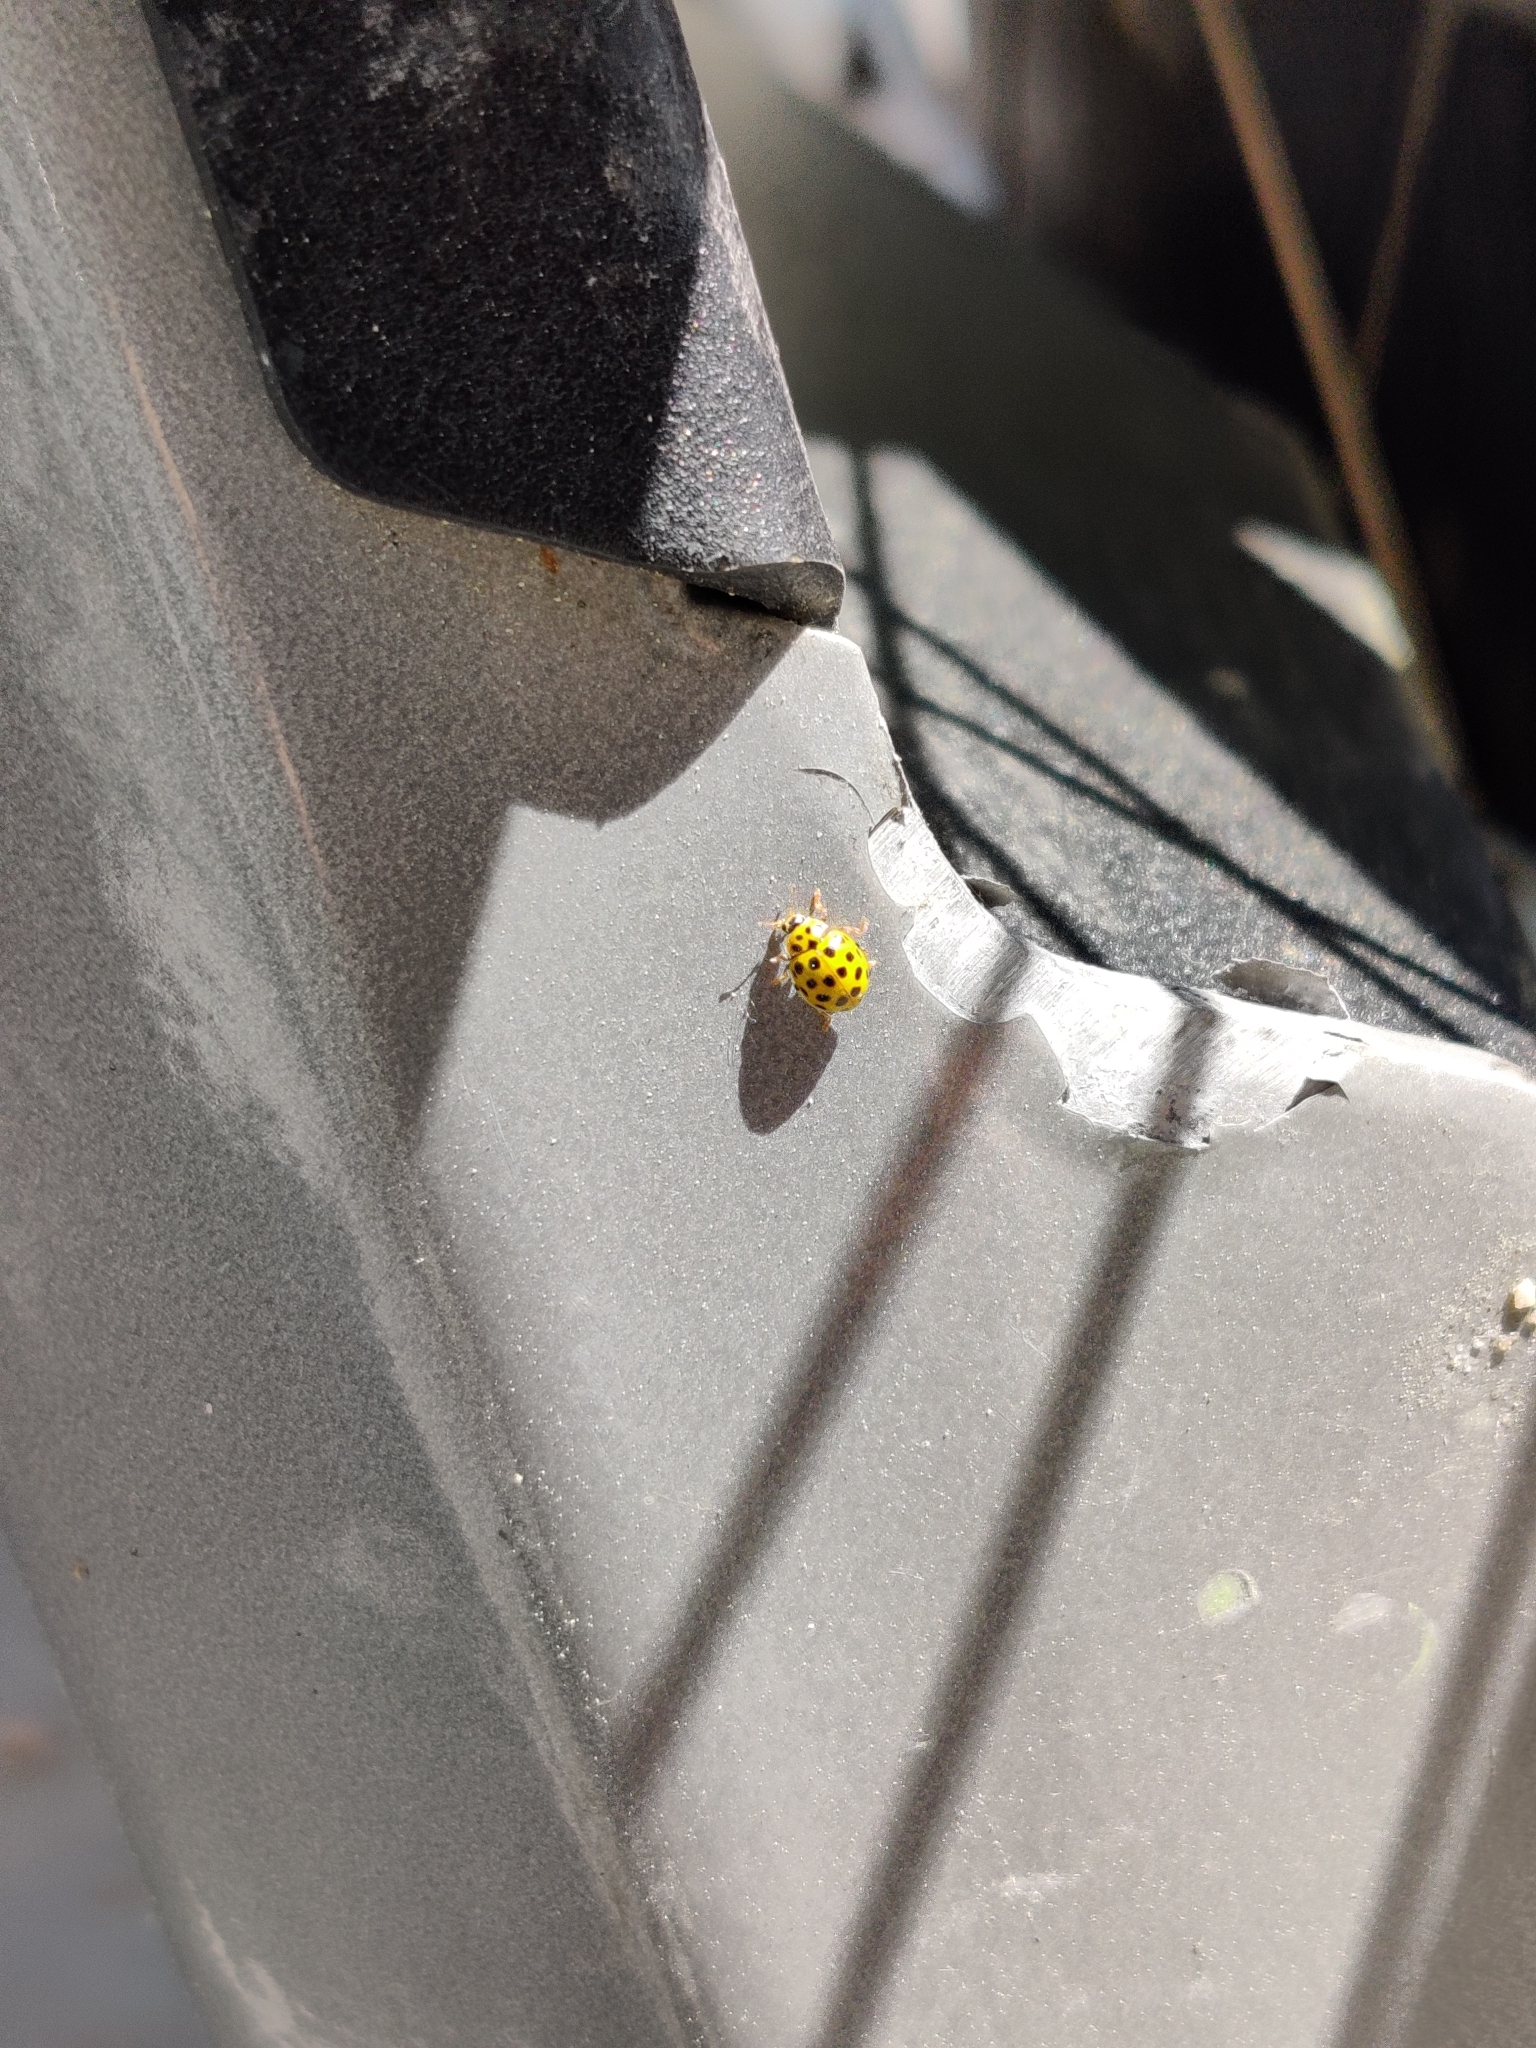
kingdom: Animalia
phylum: Arthropoda
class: Insecta
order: Coleoptera
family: Coccinellidae
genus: Psyllobora
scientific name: Psyllobora vigintiduopunctata
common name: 22-spot ladybird
